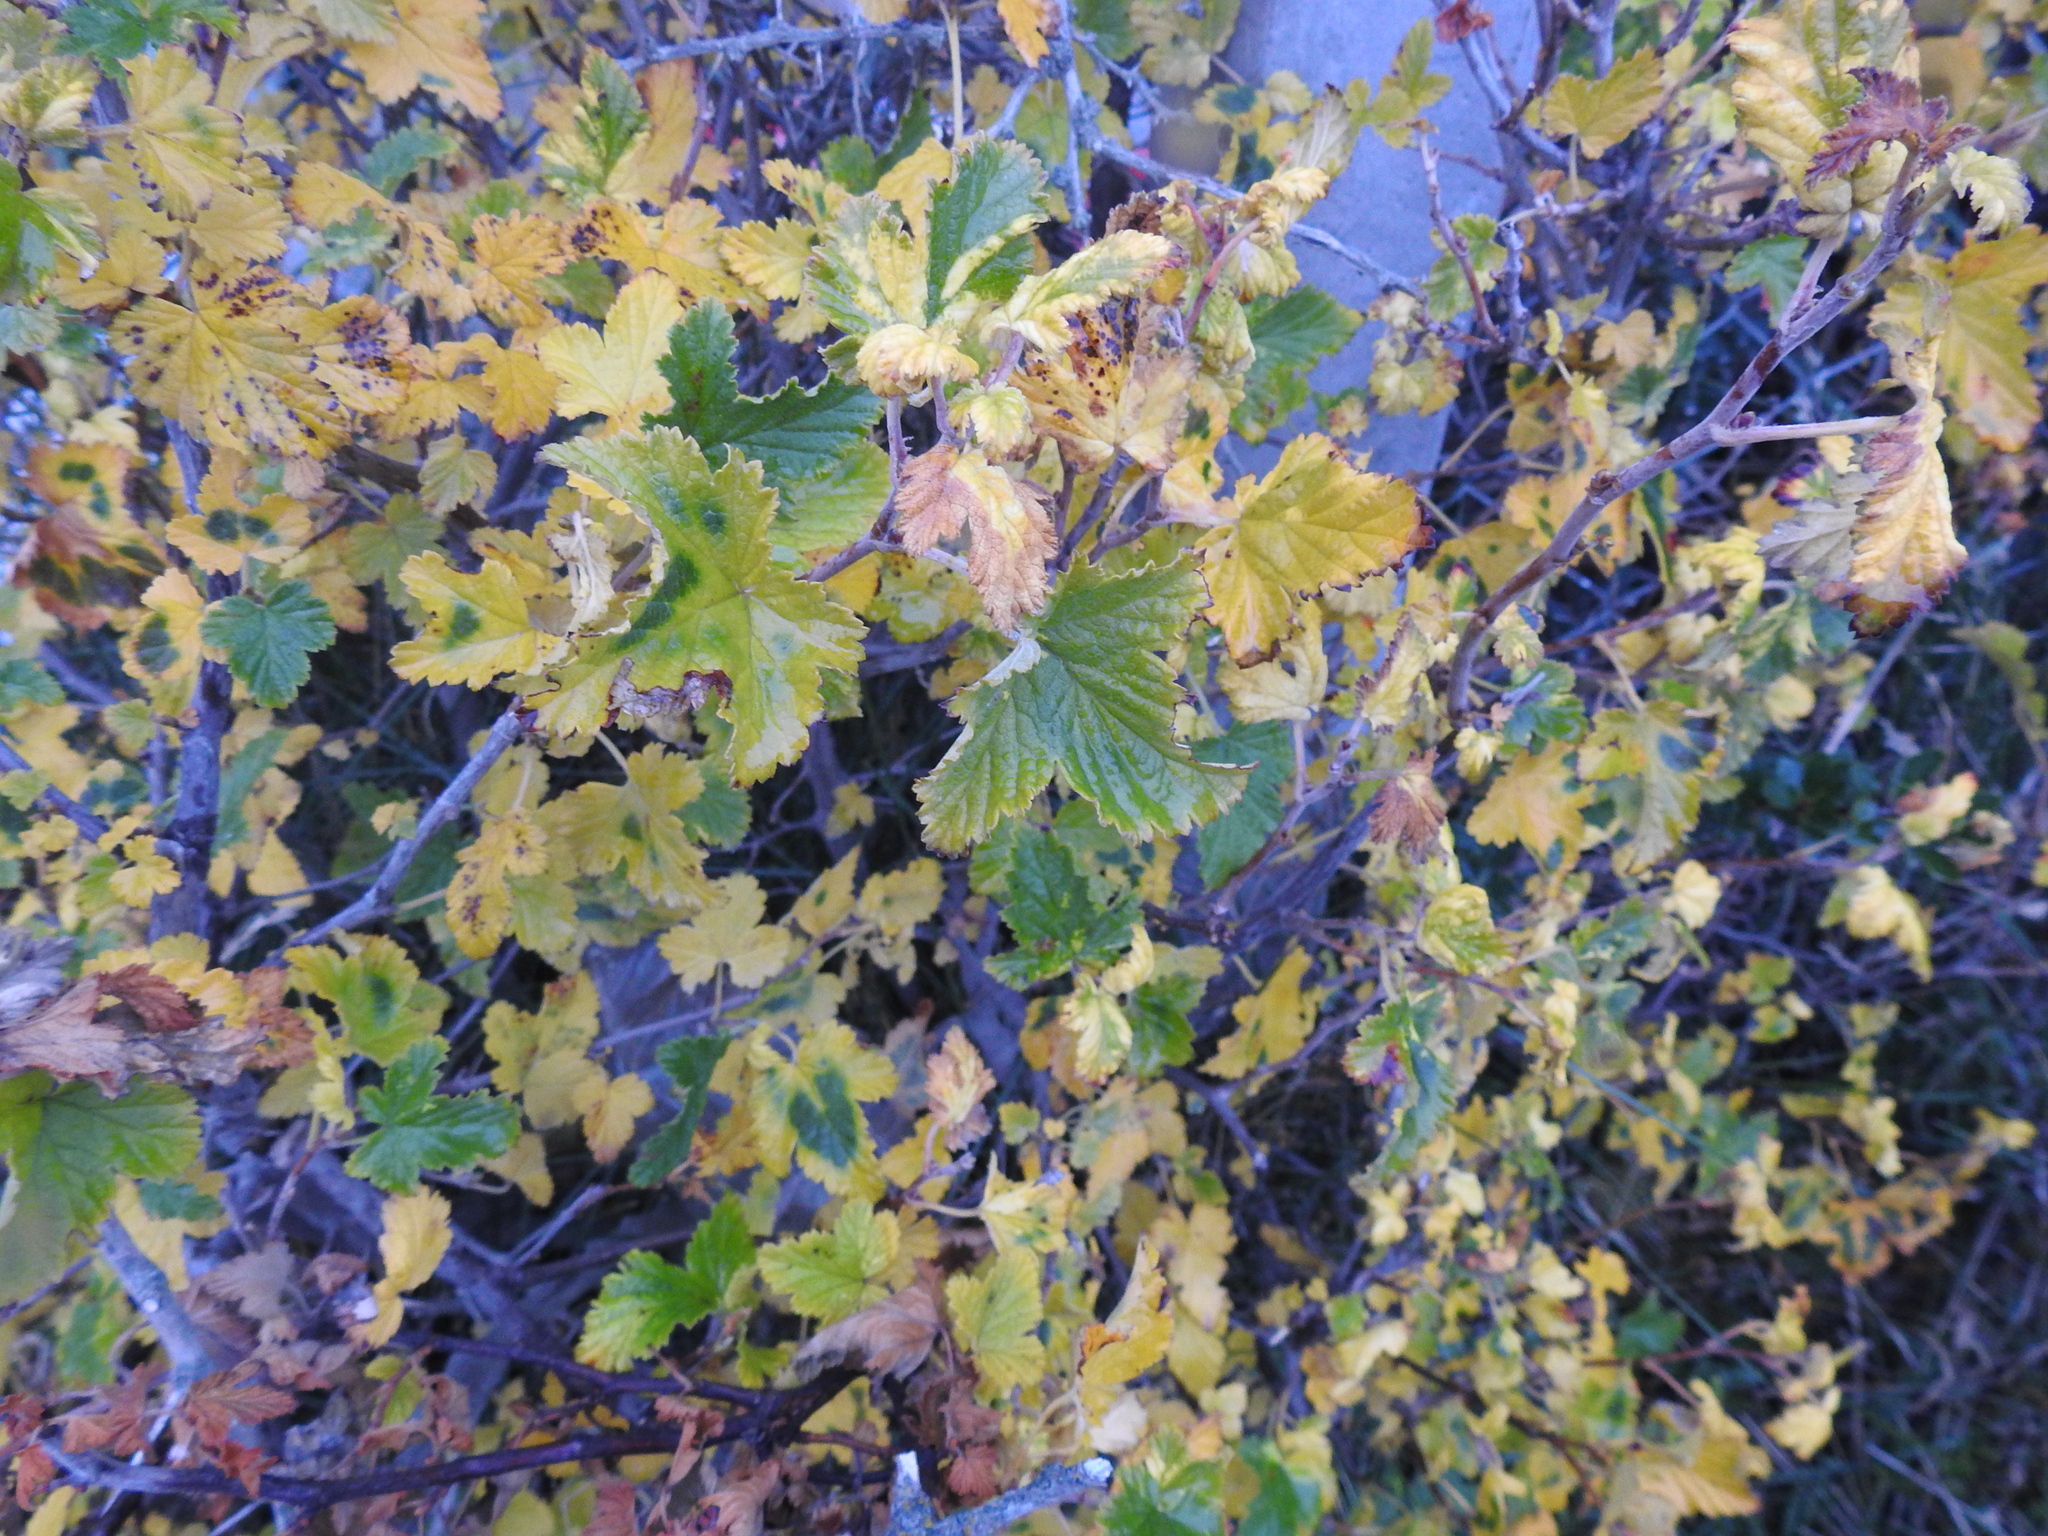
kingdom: Plantae
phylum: Tracheophyta
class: Magnoliopsida
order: Saxifragales
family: Grossulariaceae
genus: Ribes
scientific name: Ribes magellanicum
